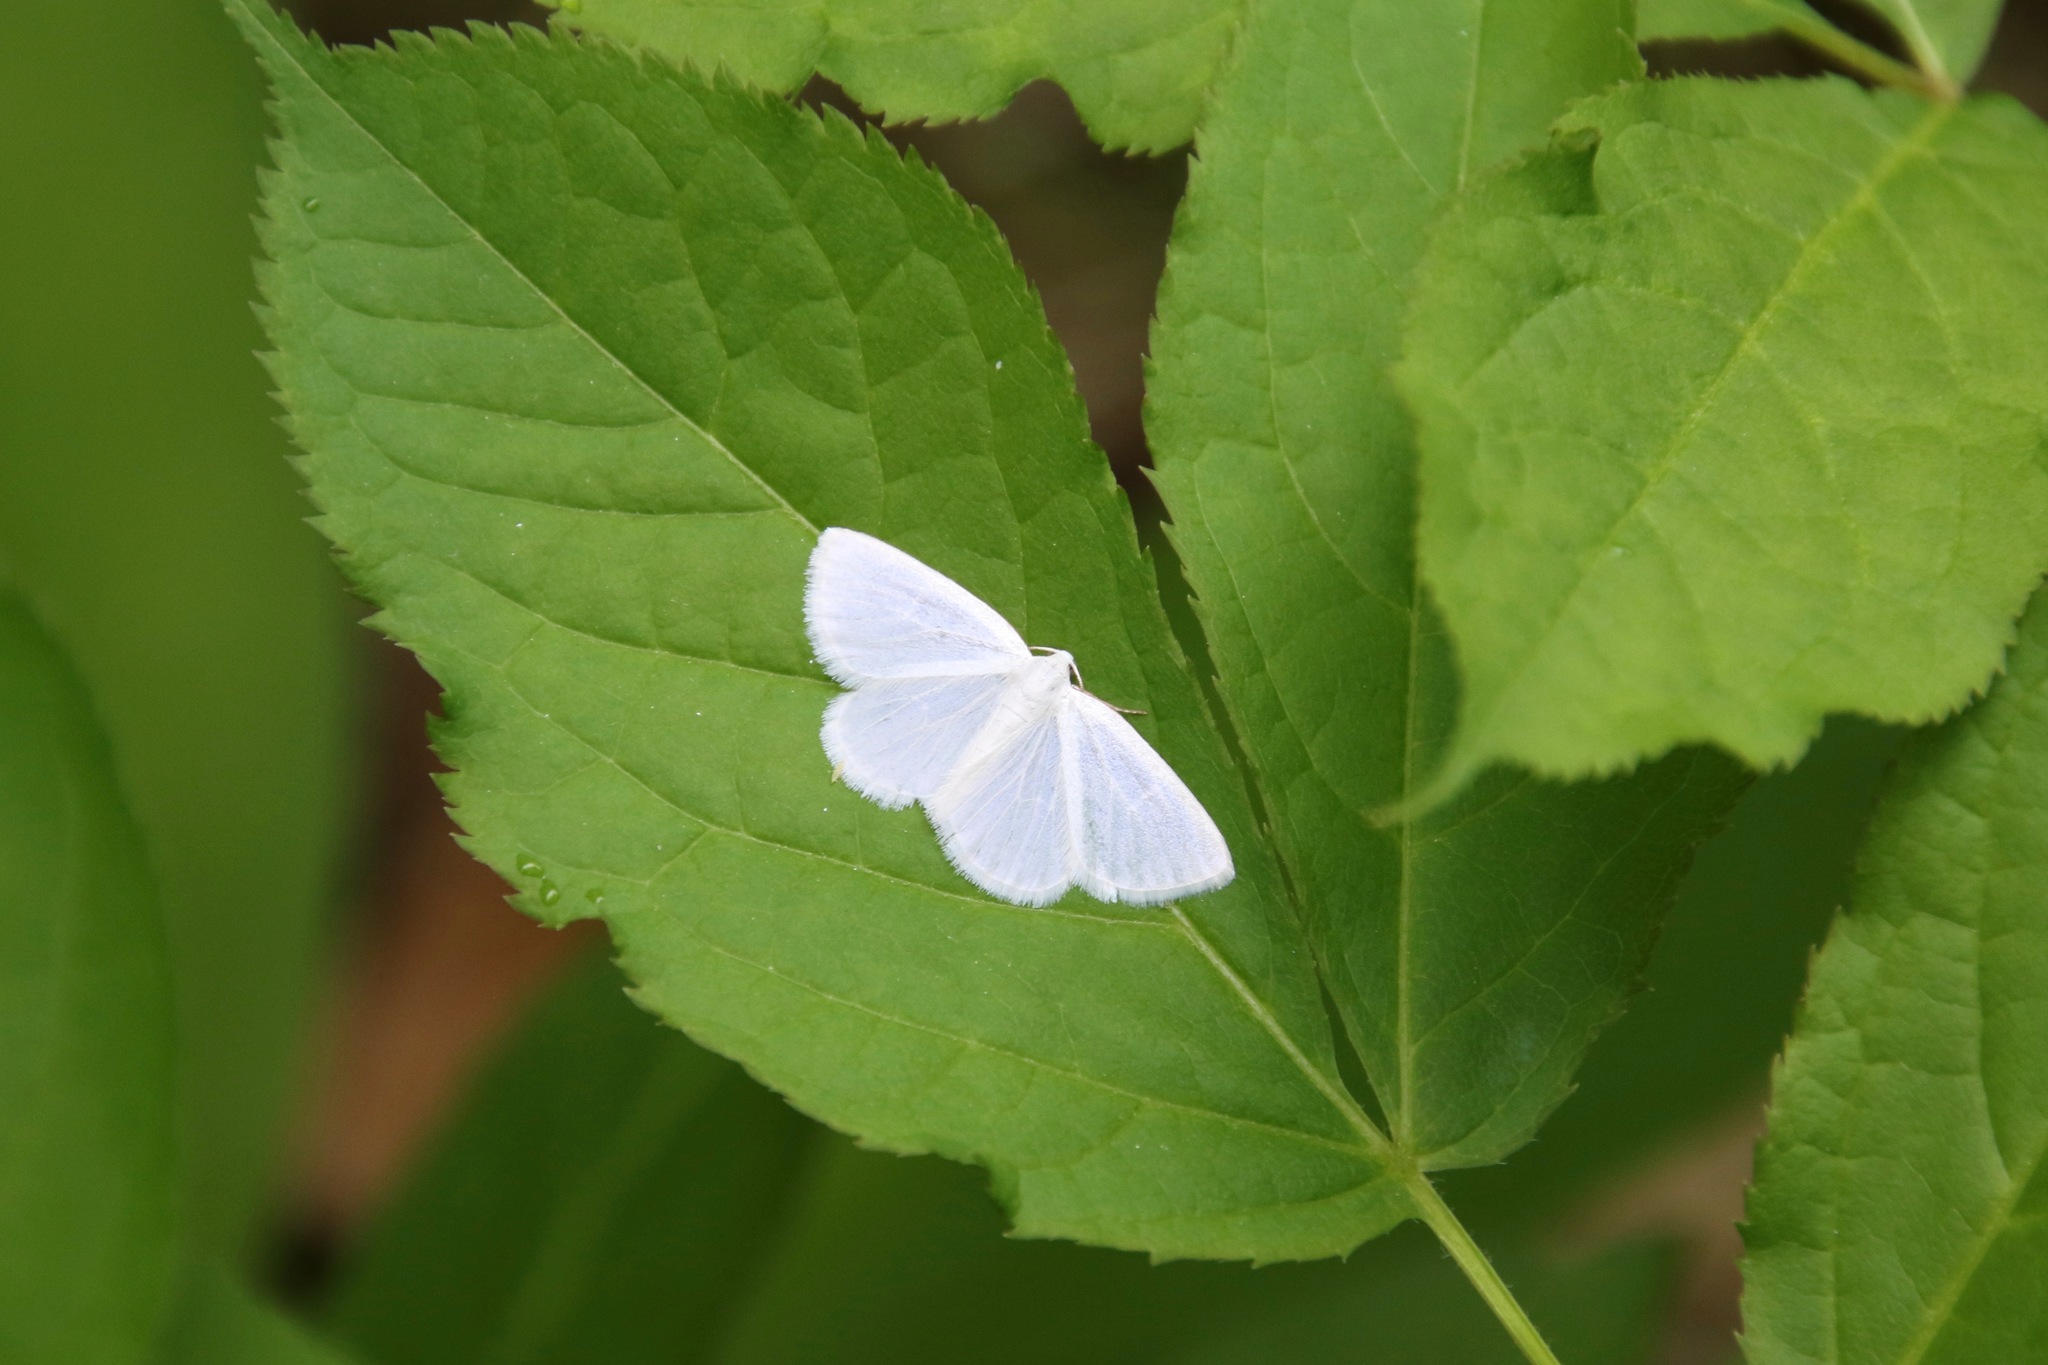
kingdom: Animalia
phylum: Arthropoda
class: Insecta
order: Lepidoptera
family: Geometridae
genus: Lomographa
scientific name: Lomographa vestaliata
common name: White spring moth
